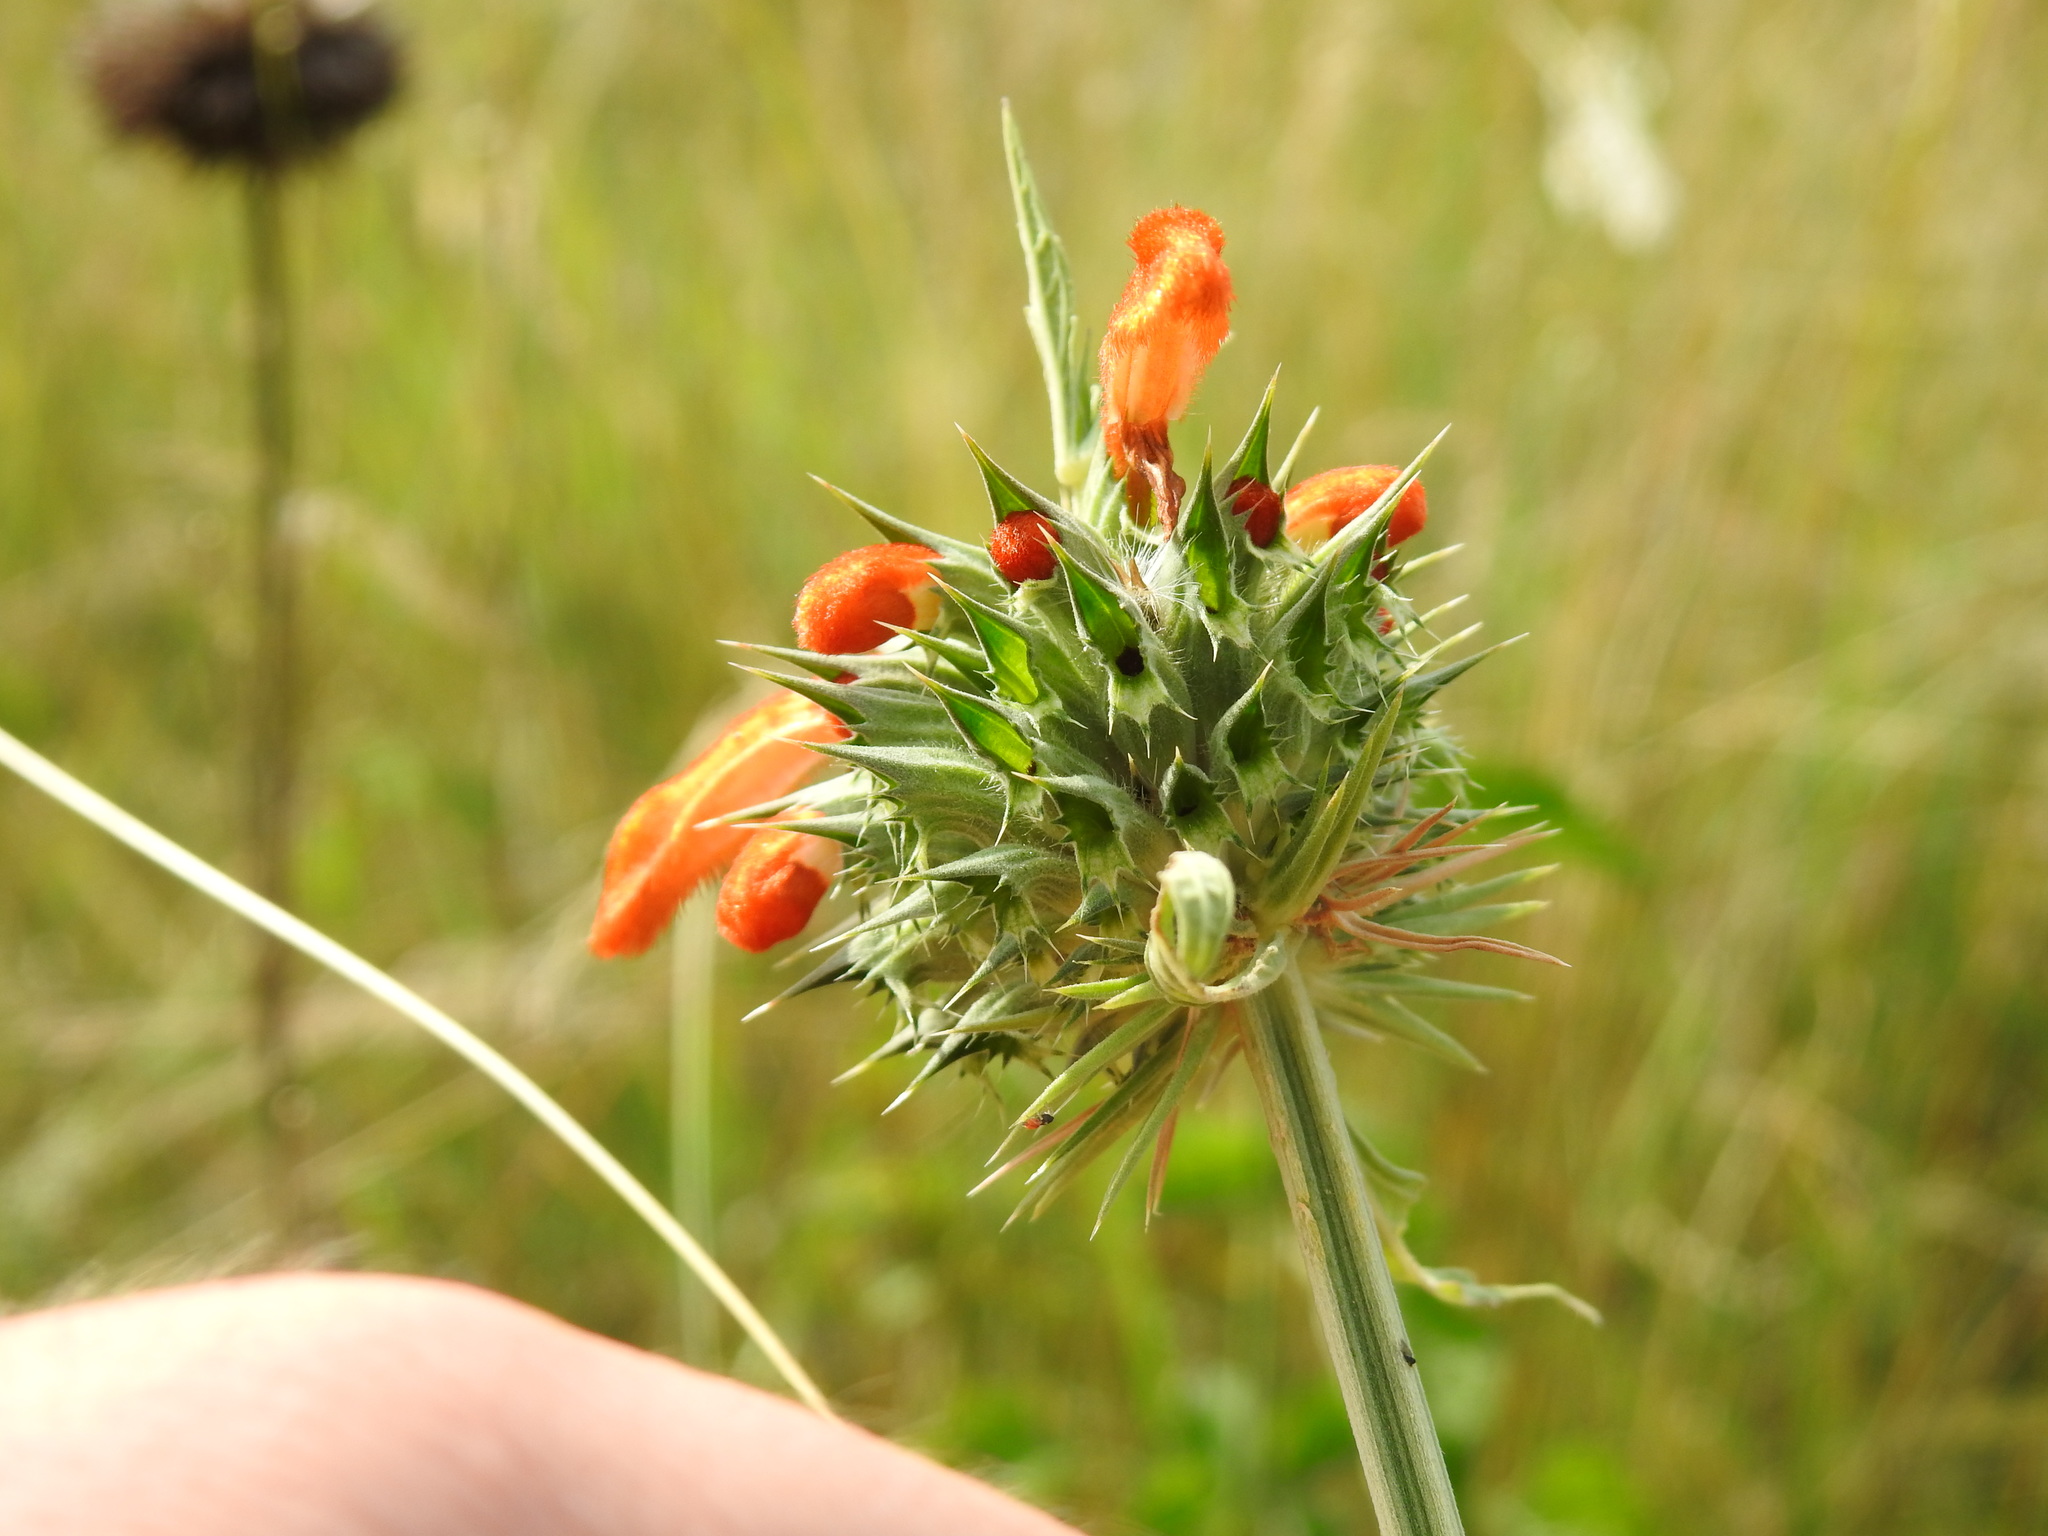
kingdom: Plantae
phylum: Tracheophyta
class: Magnoliopsida
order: Lamiales
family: Lamiaceae
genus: Leonotis
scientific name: Leonotis nepetifolia
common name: Christmas candlestick
